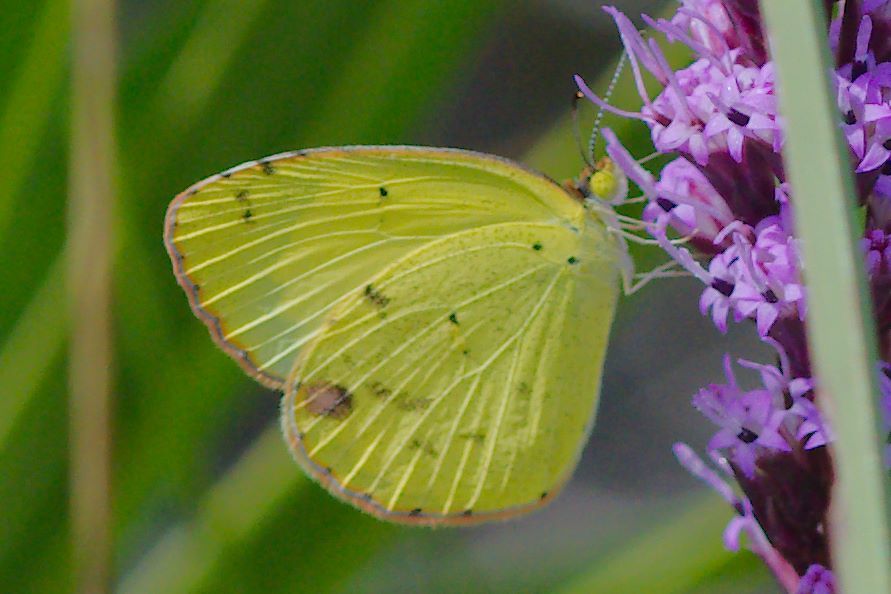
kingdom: Animalia
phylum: Arthropoda
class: Insecta
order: Lepidoptera
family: Pieridae
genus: Pyrisitia
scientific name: Pyrisitia lisa
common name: Little yellow
